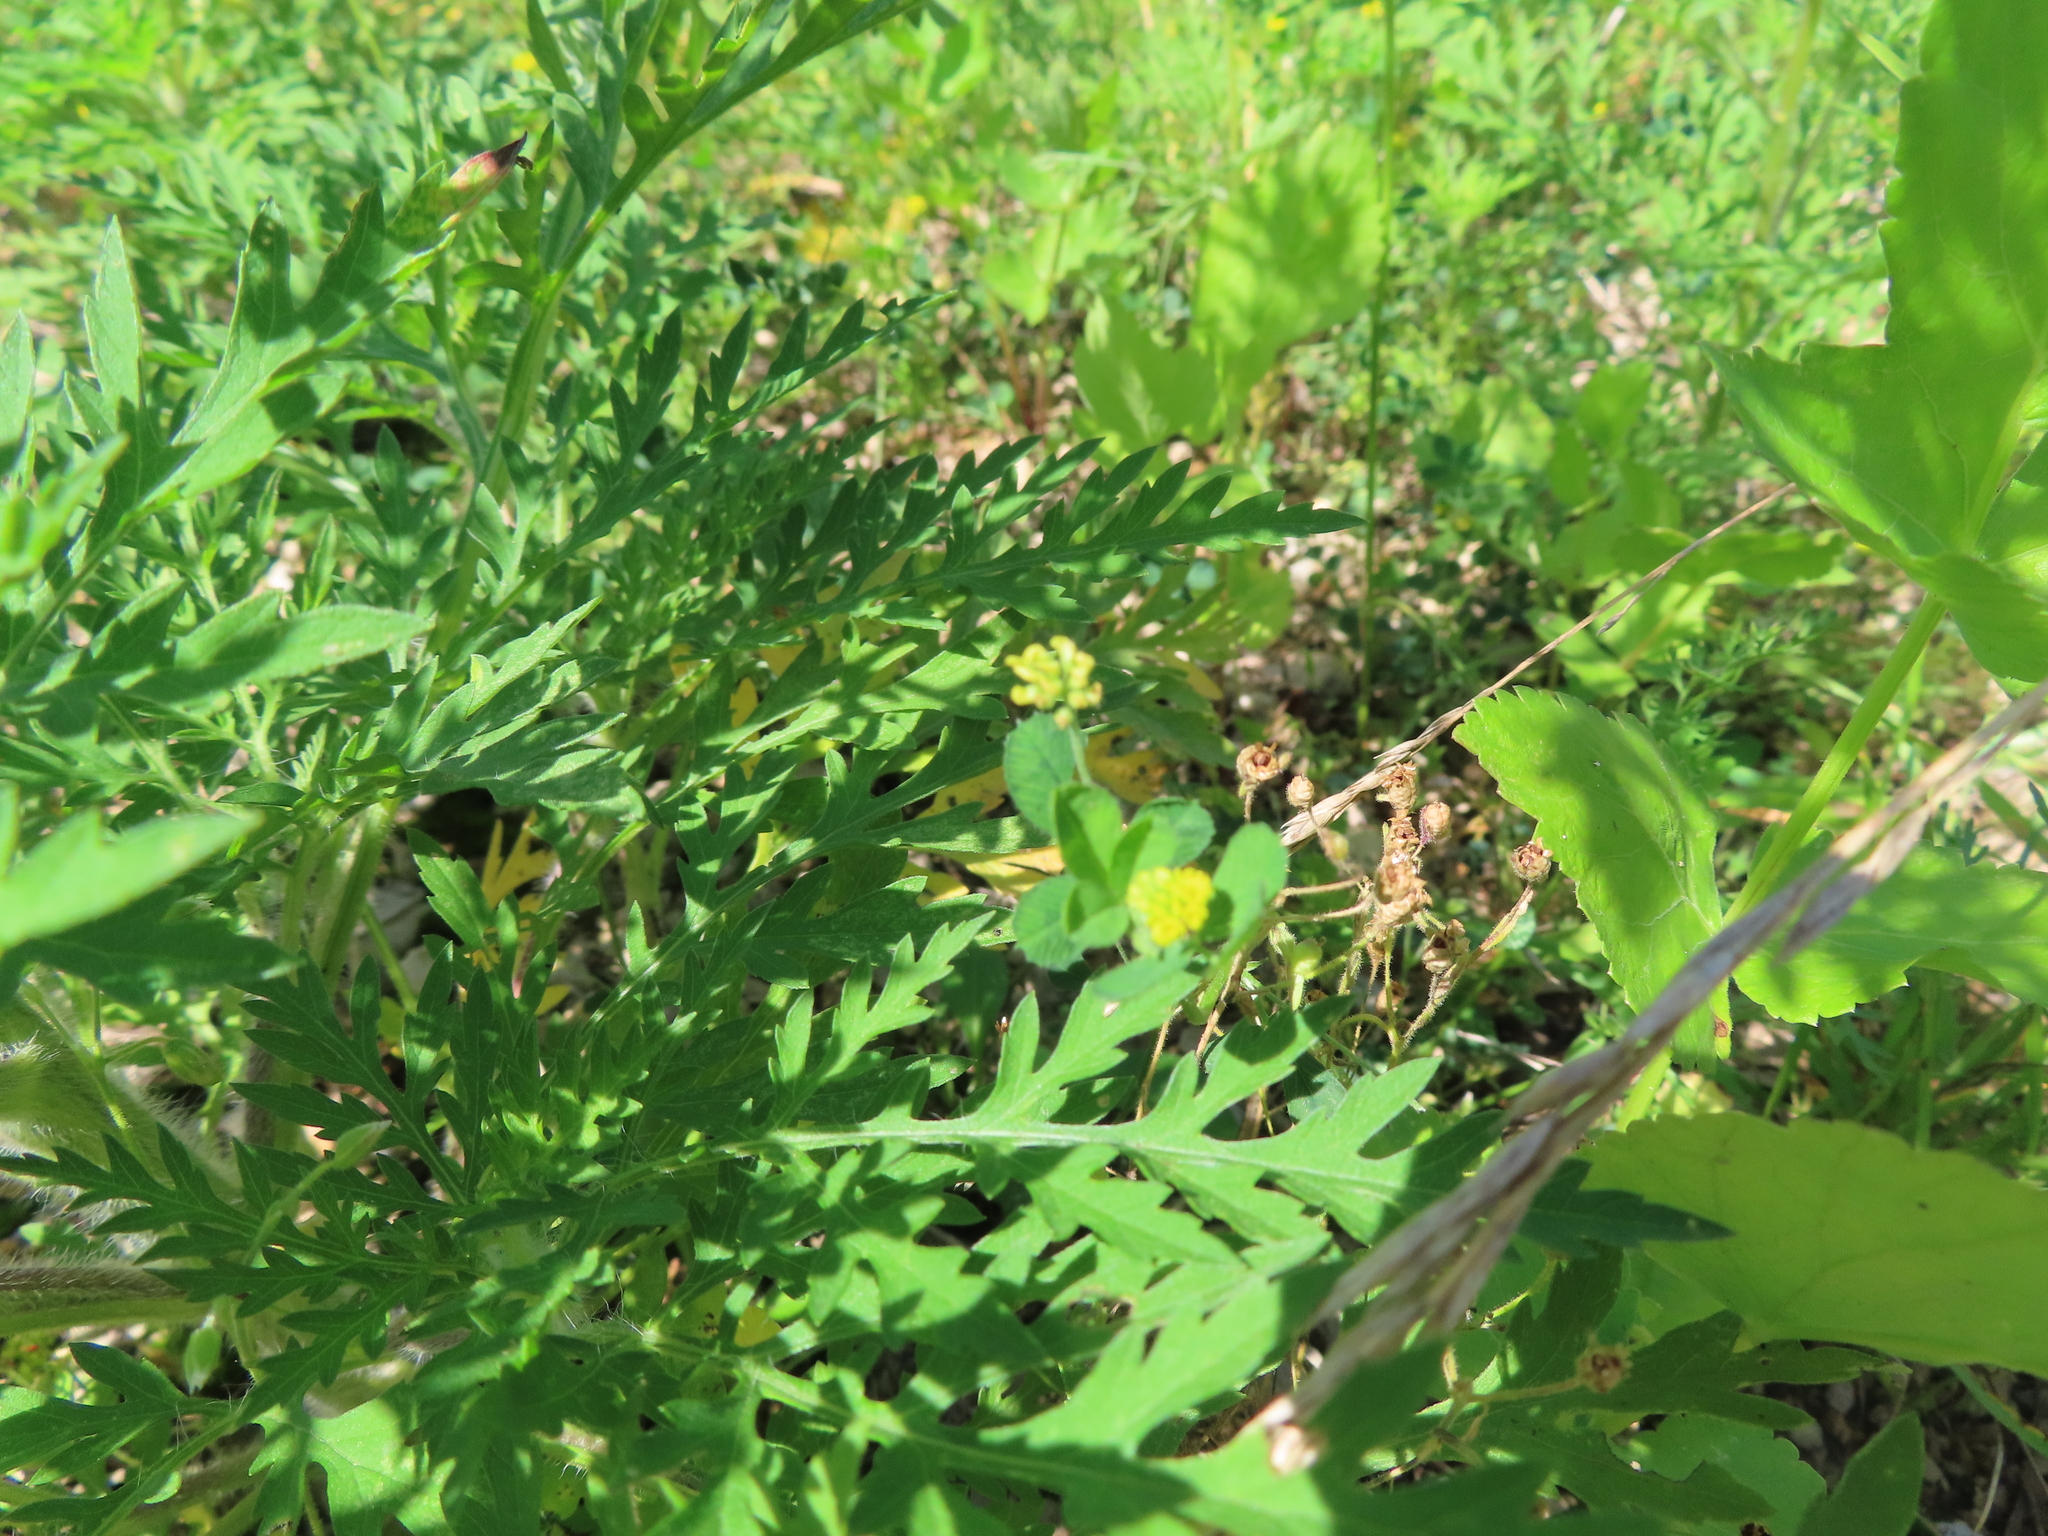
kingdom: Plantae
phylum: Tracheophyta
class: Magnoliopsida
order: Fabales
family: Fabaceae
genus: Medicago
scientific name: Medicago lupulina
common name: Black medick
